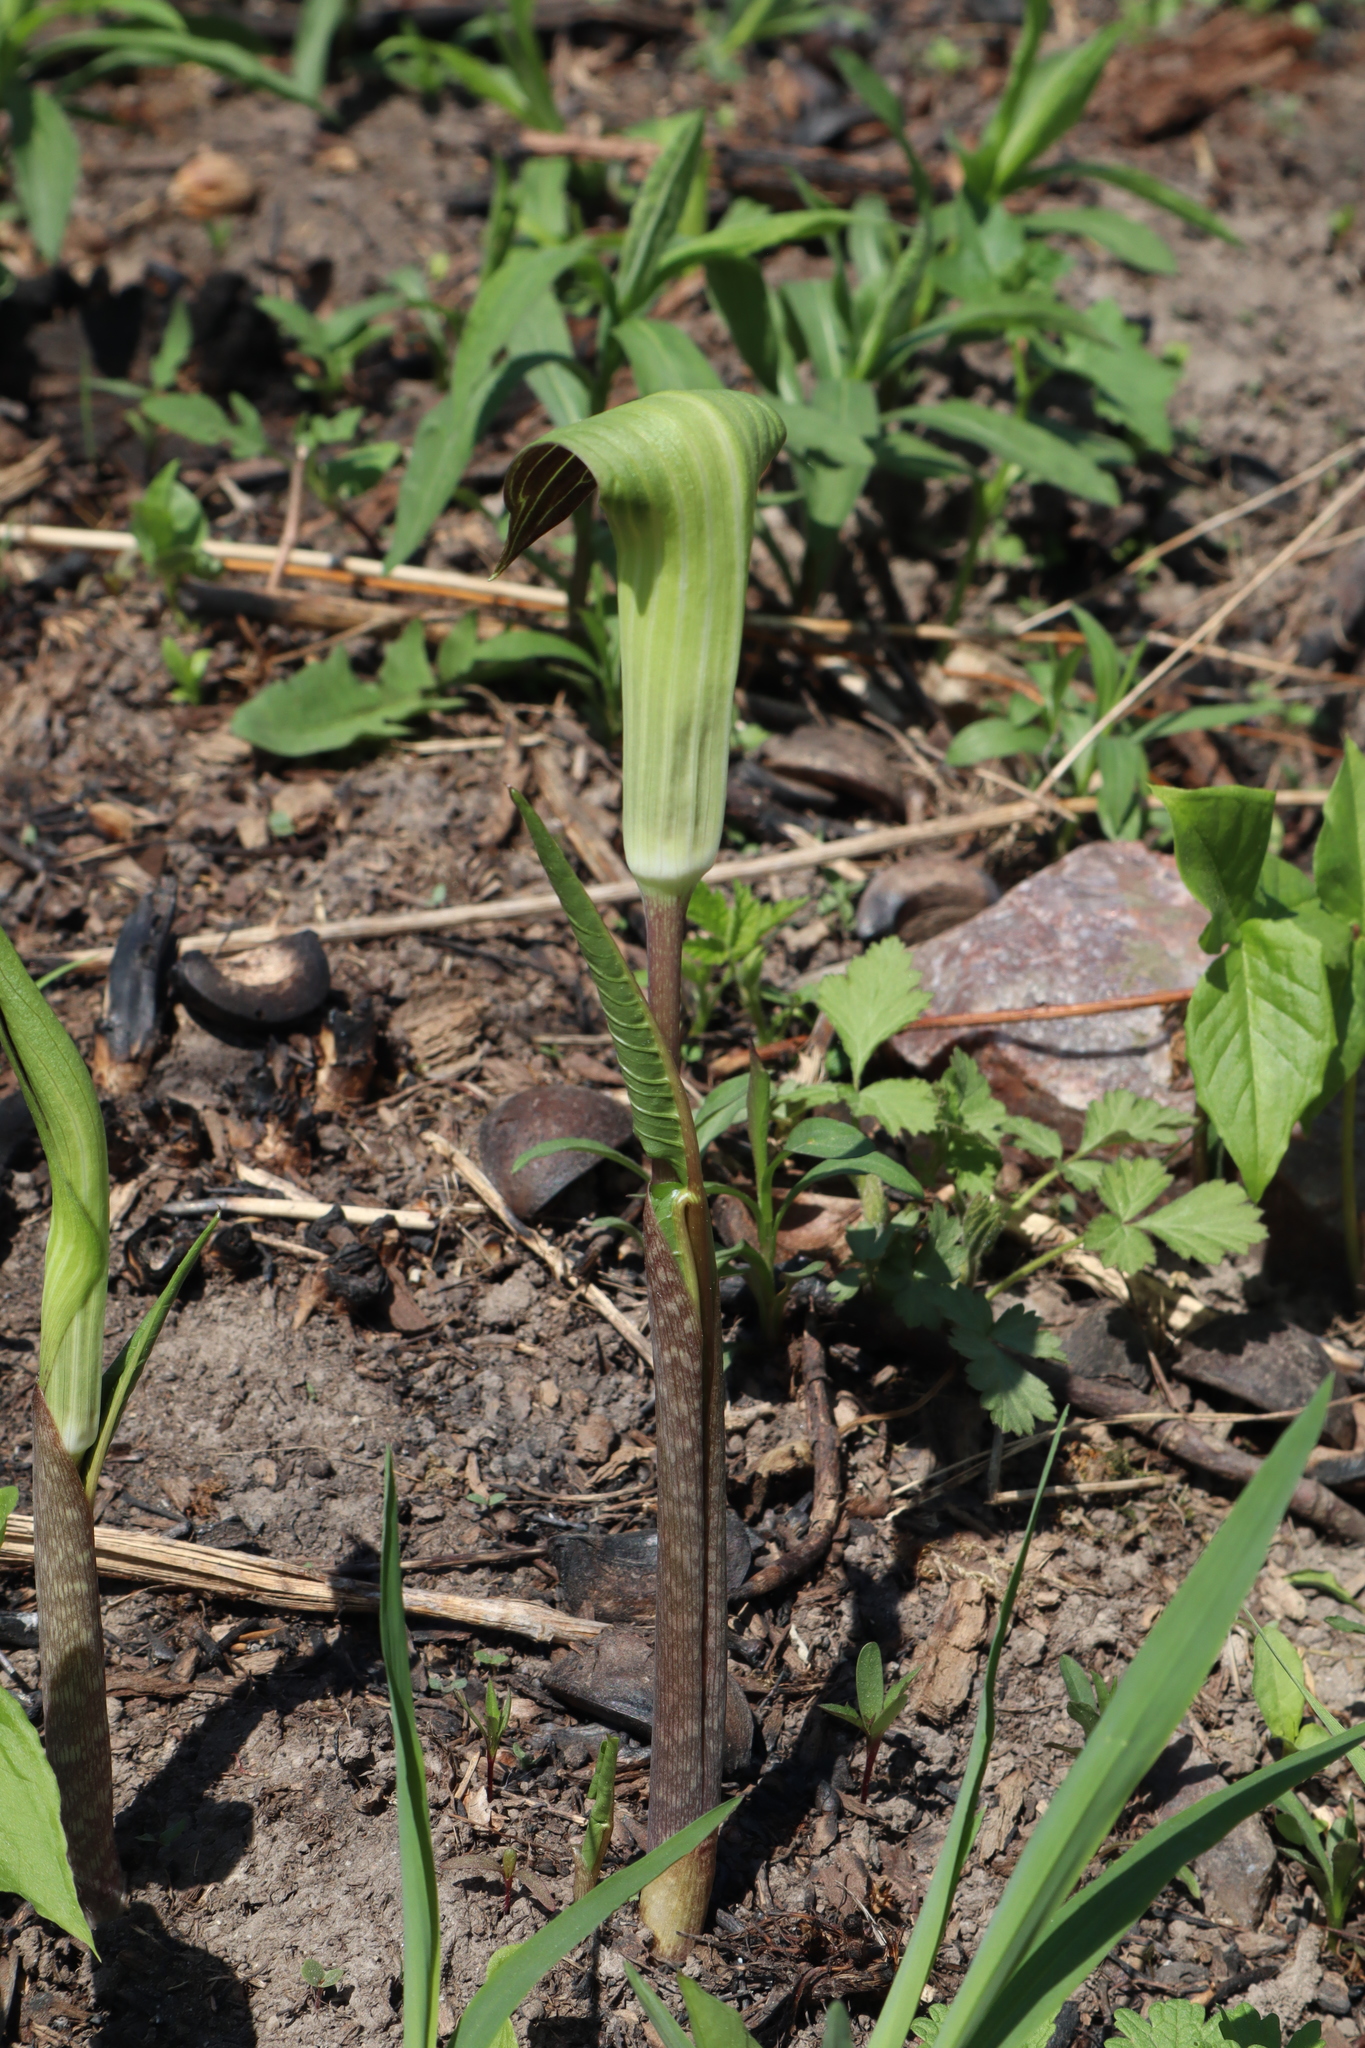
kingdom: Plantae
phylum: Tracheophyta
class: Liliopsida
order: Alismatales
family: Araceae
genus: Arisaema
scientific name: Arisaema triphyllum
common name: Jack-in-the-pulpit
